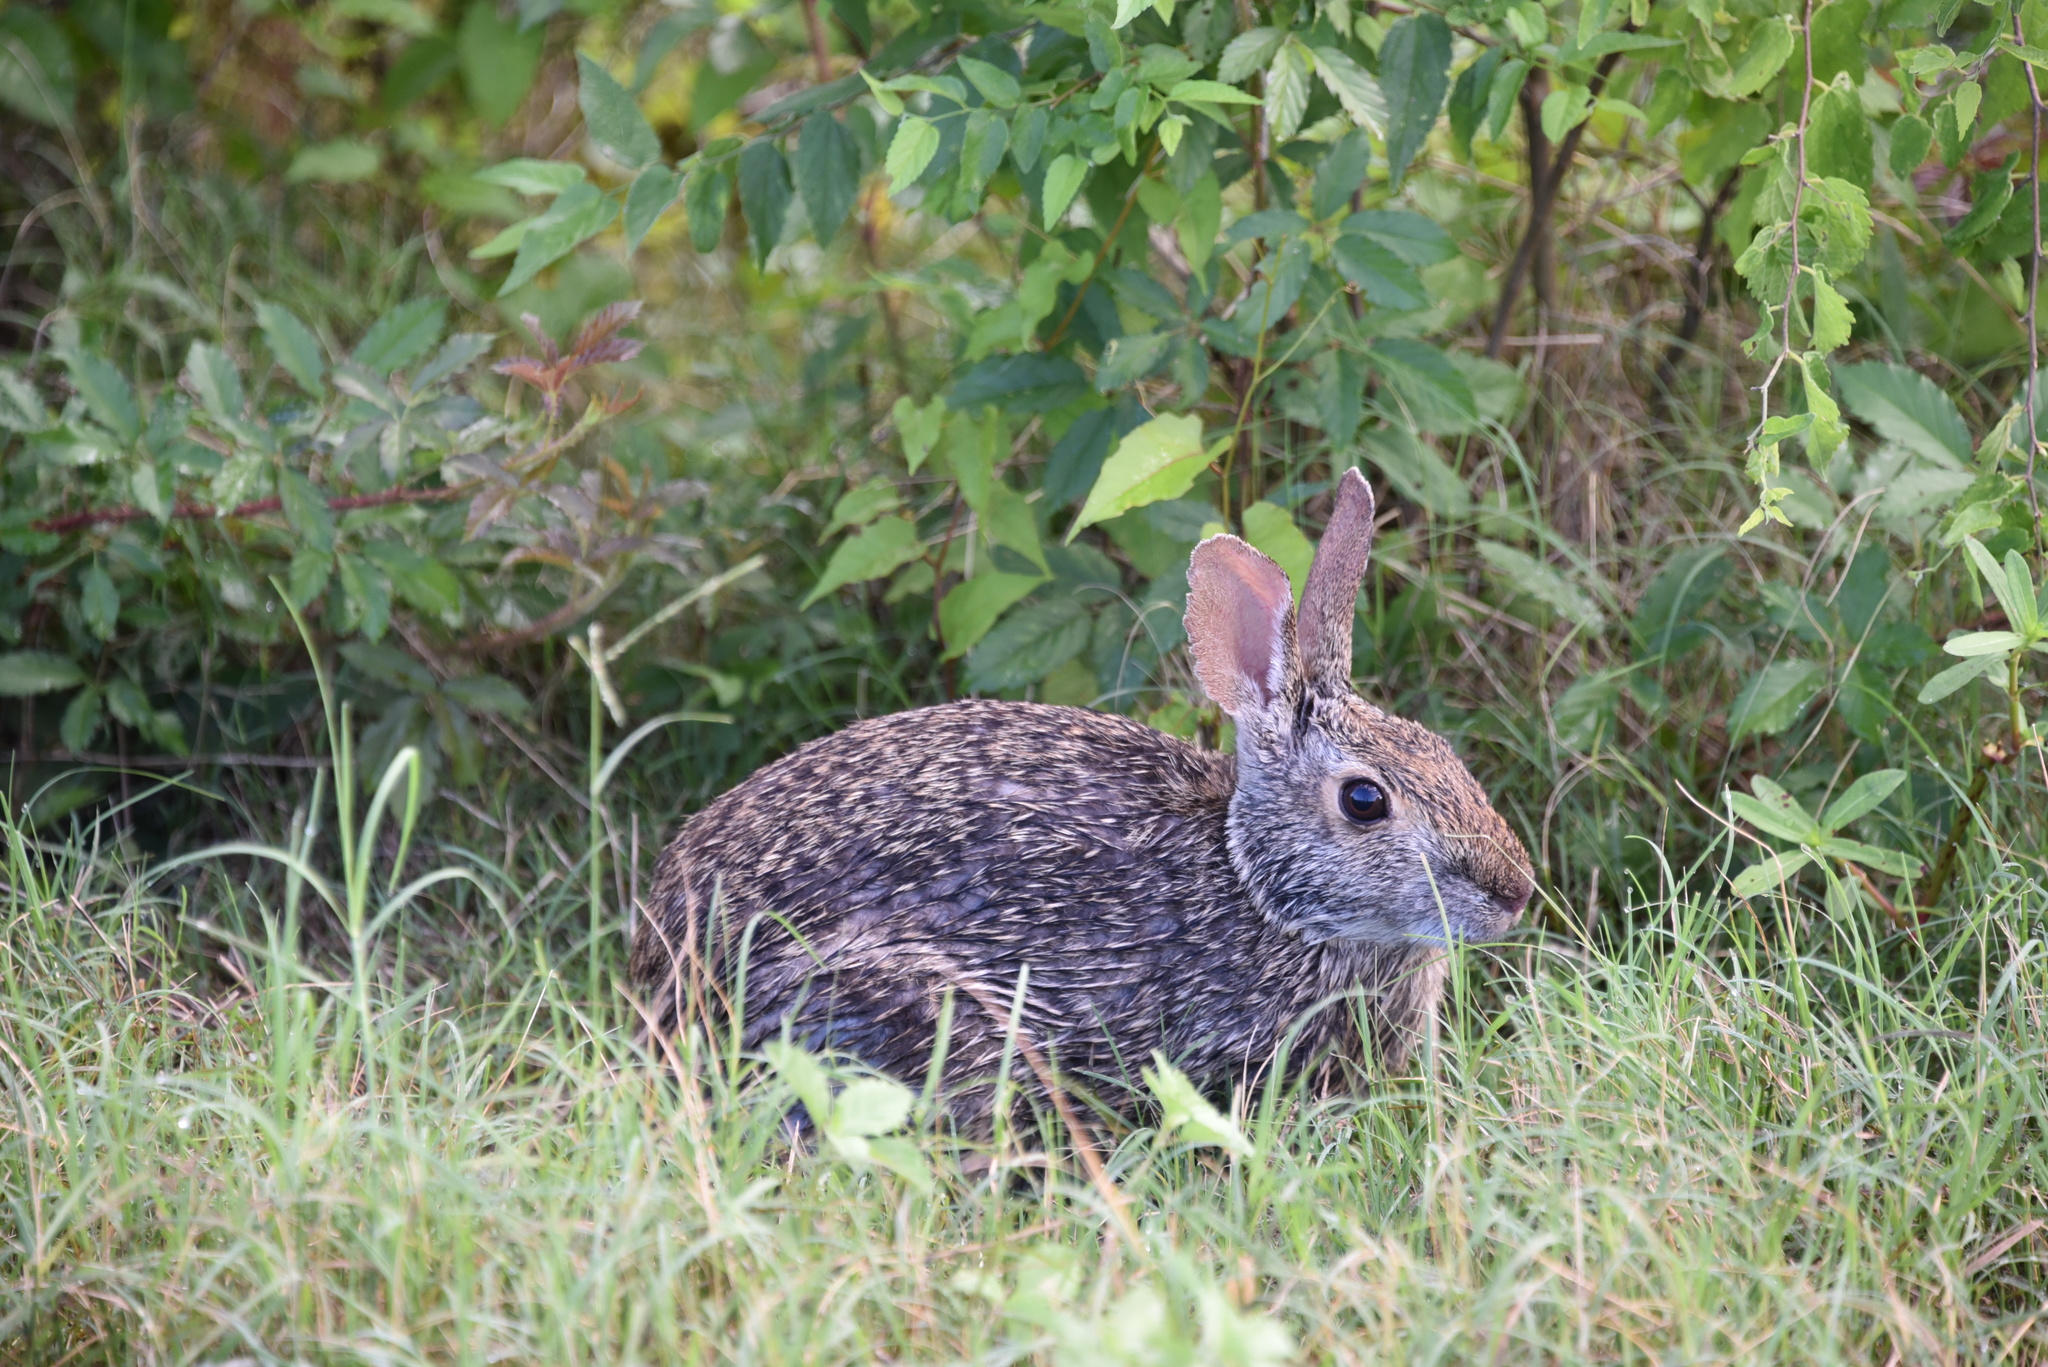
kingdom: Animalia
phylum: Chordata
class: Mammalia
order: Lagomorpha
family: Leporidae
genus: Sylvilagus
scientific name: Sylvilagus aquaticus
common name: Swamp rabbit
